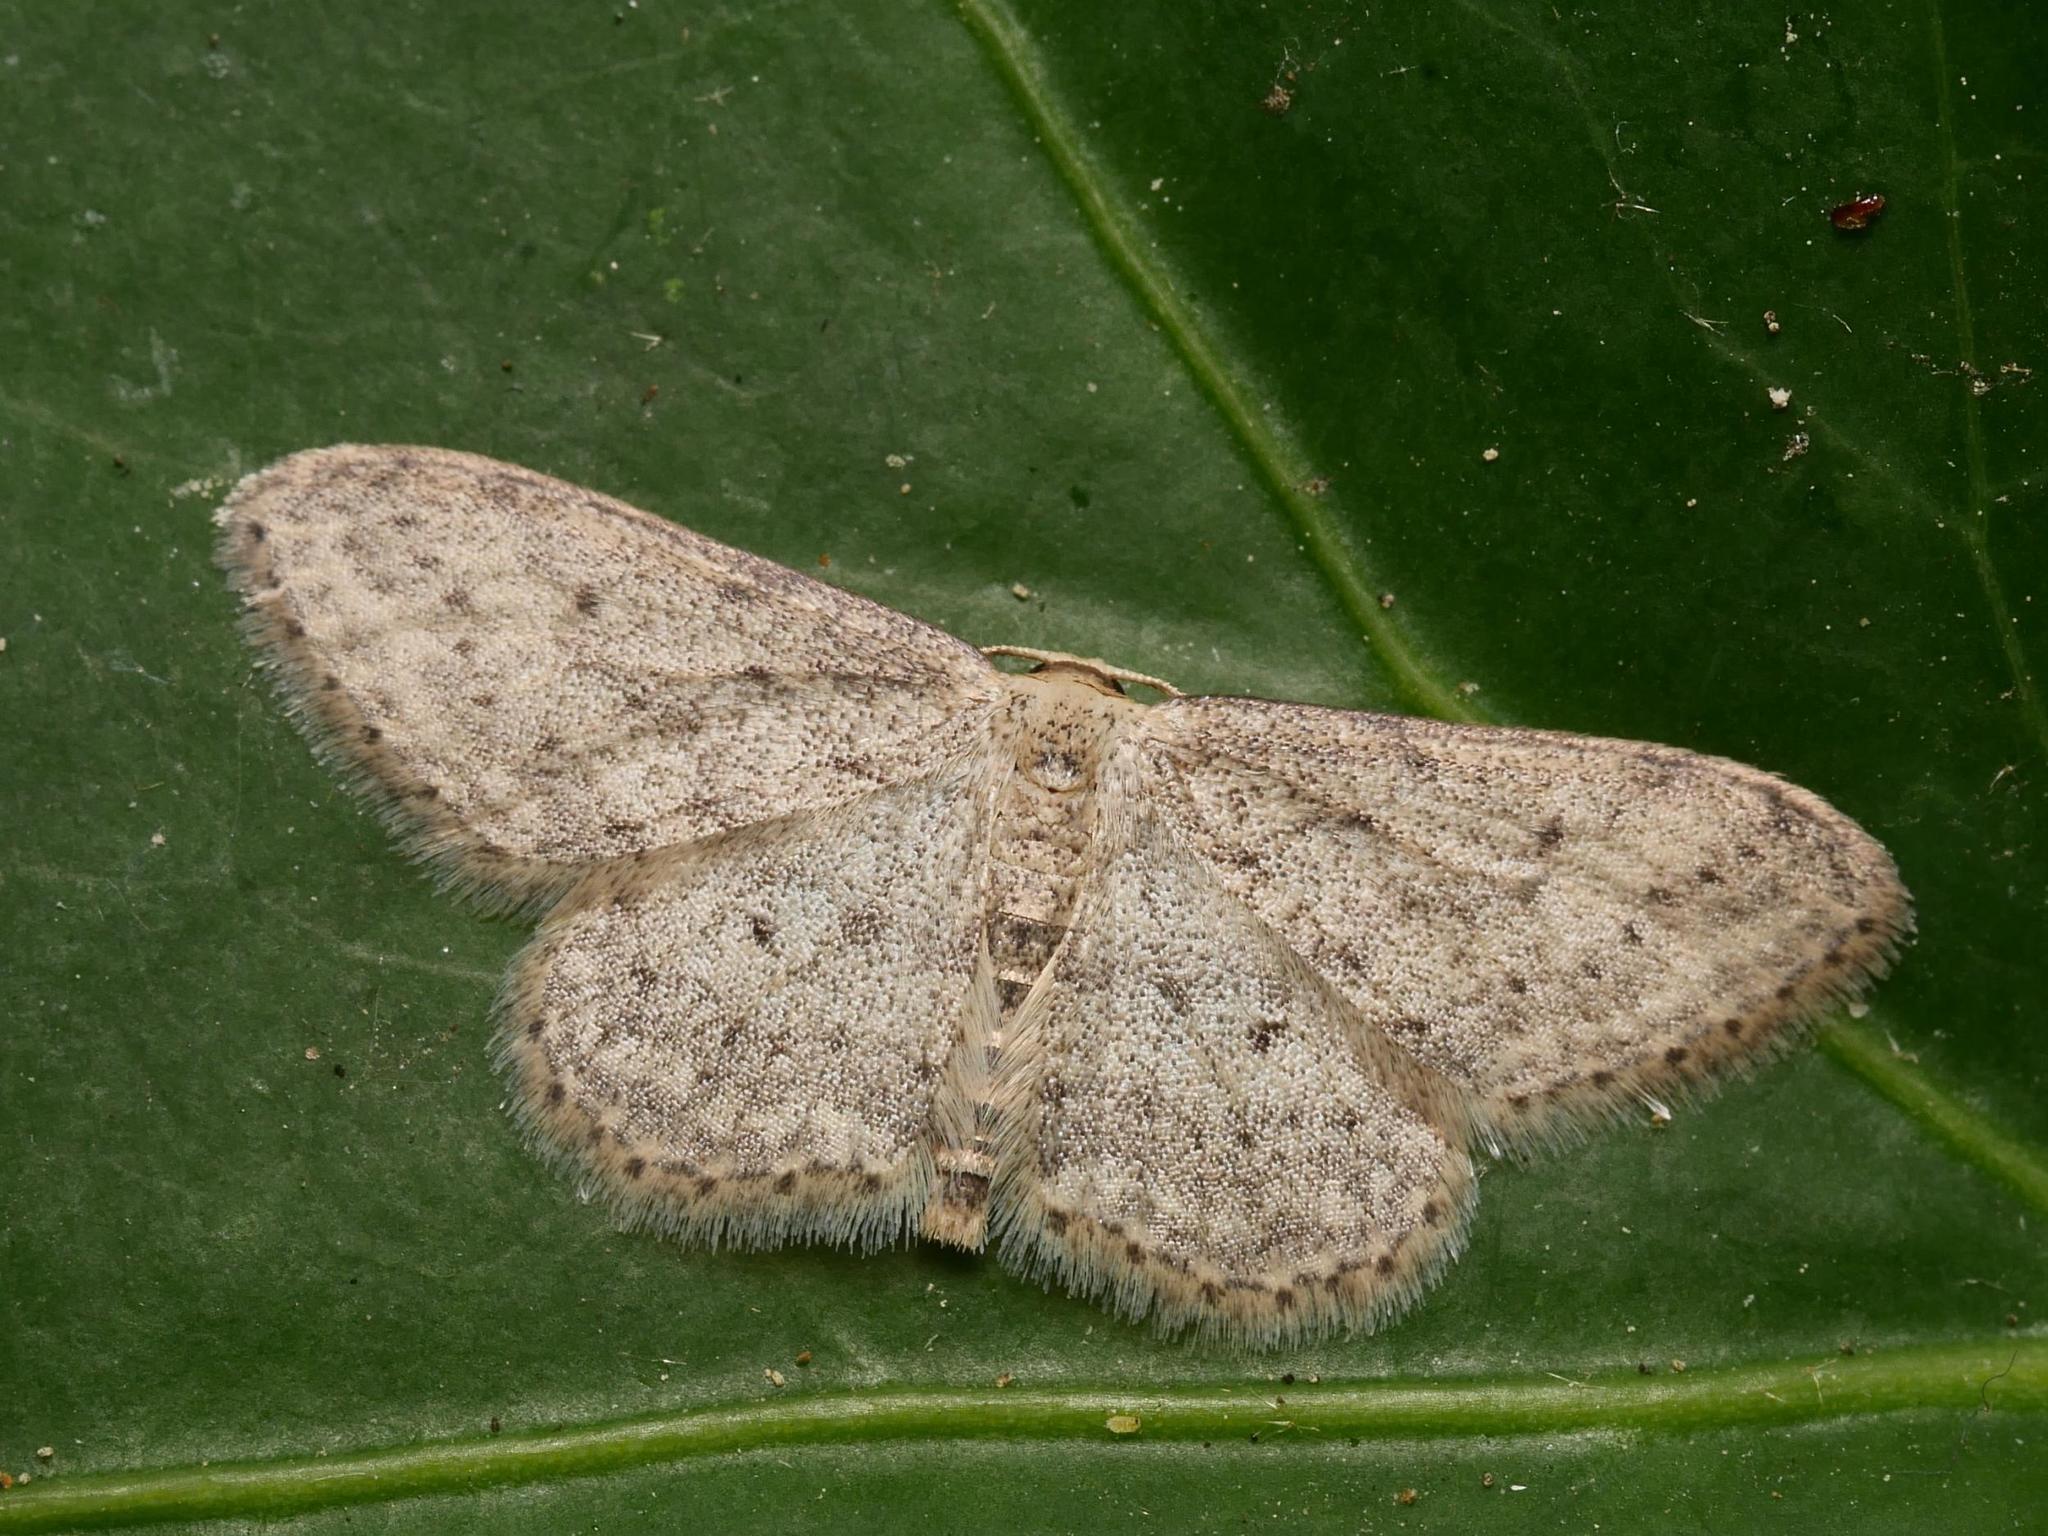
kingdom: Animalia
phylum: Arthropoda
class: Insecta
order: Lepidoptera
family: Geometridae
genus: Idaea
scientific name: Idaea seriata
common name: Small dusty wave
